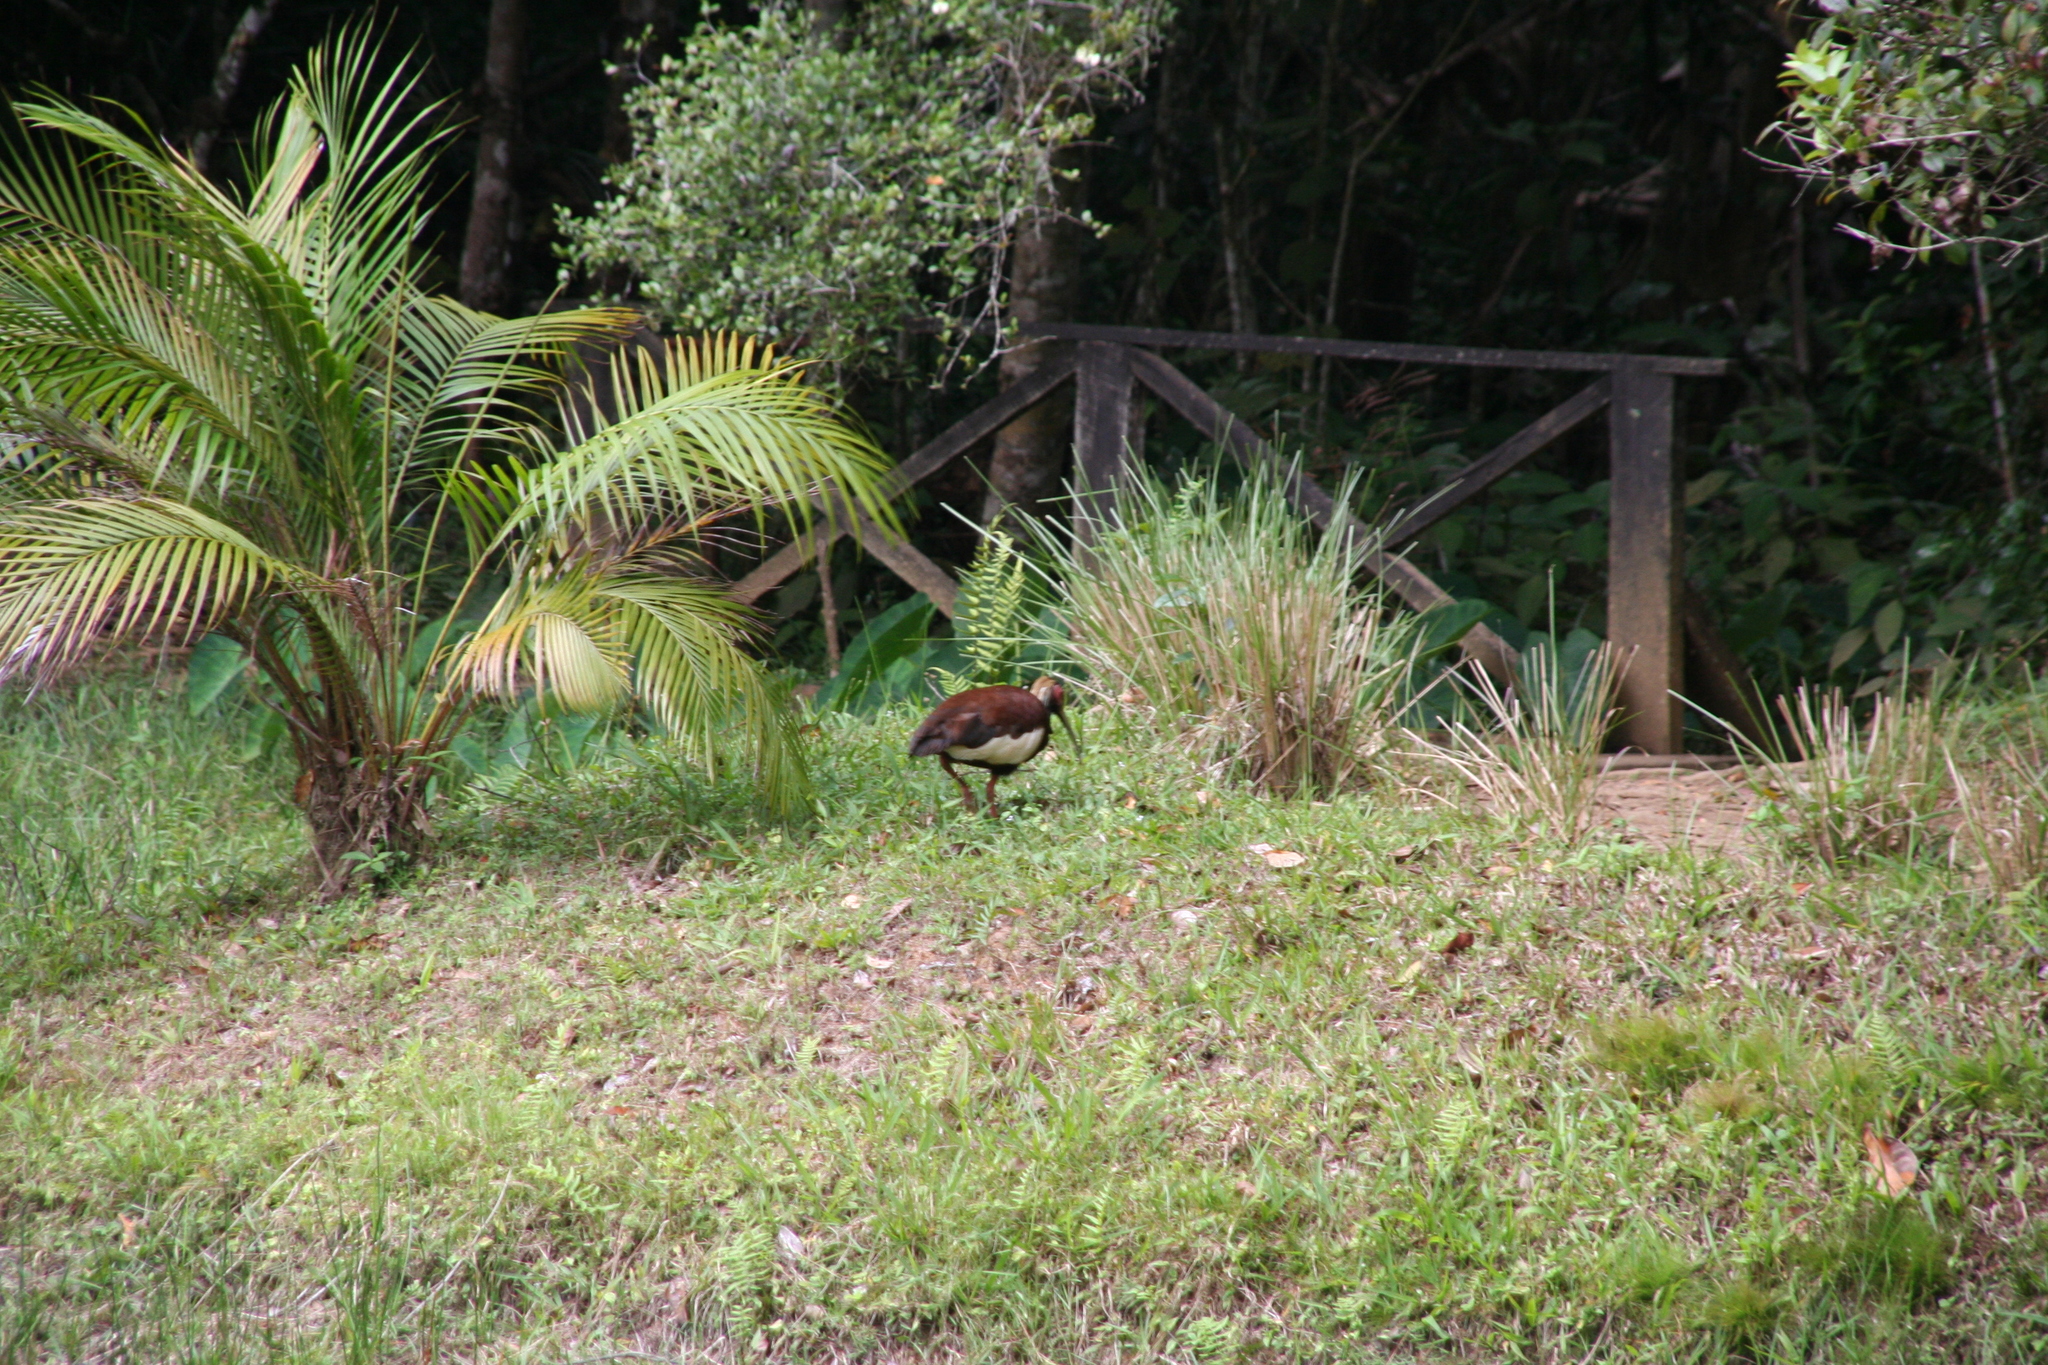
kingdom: Animalia
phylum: Chordata
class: Aves
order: Pelecaniformes
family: Threskiornithidae
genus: Lophotibis
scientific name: Lophotibis cristata
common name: Madagascar ibis
